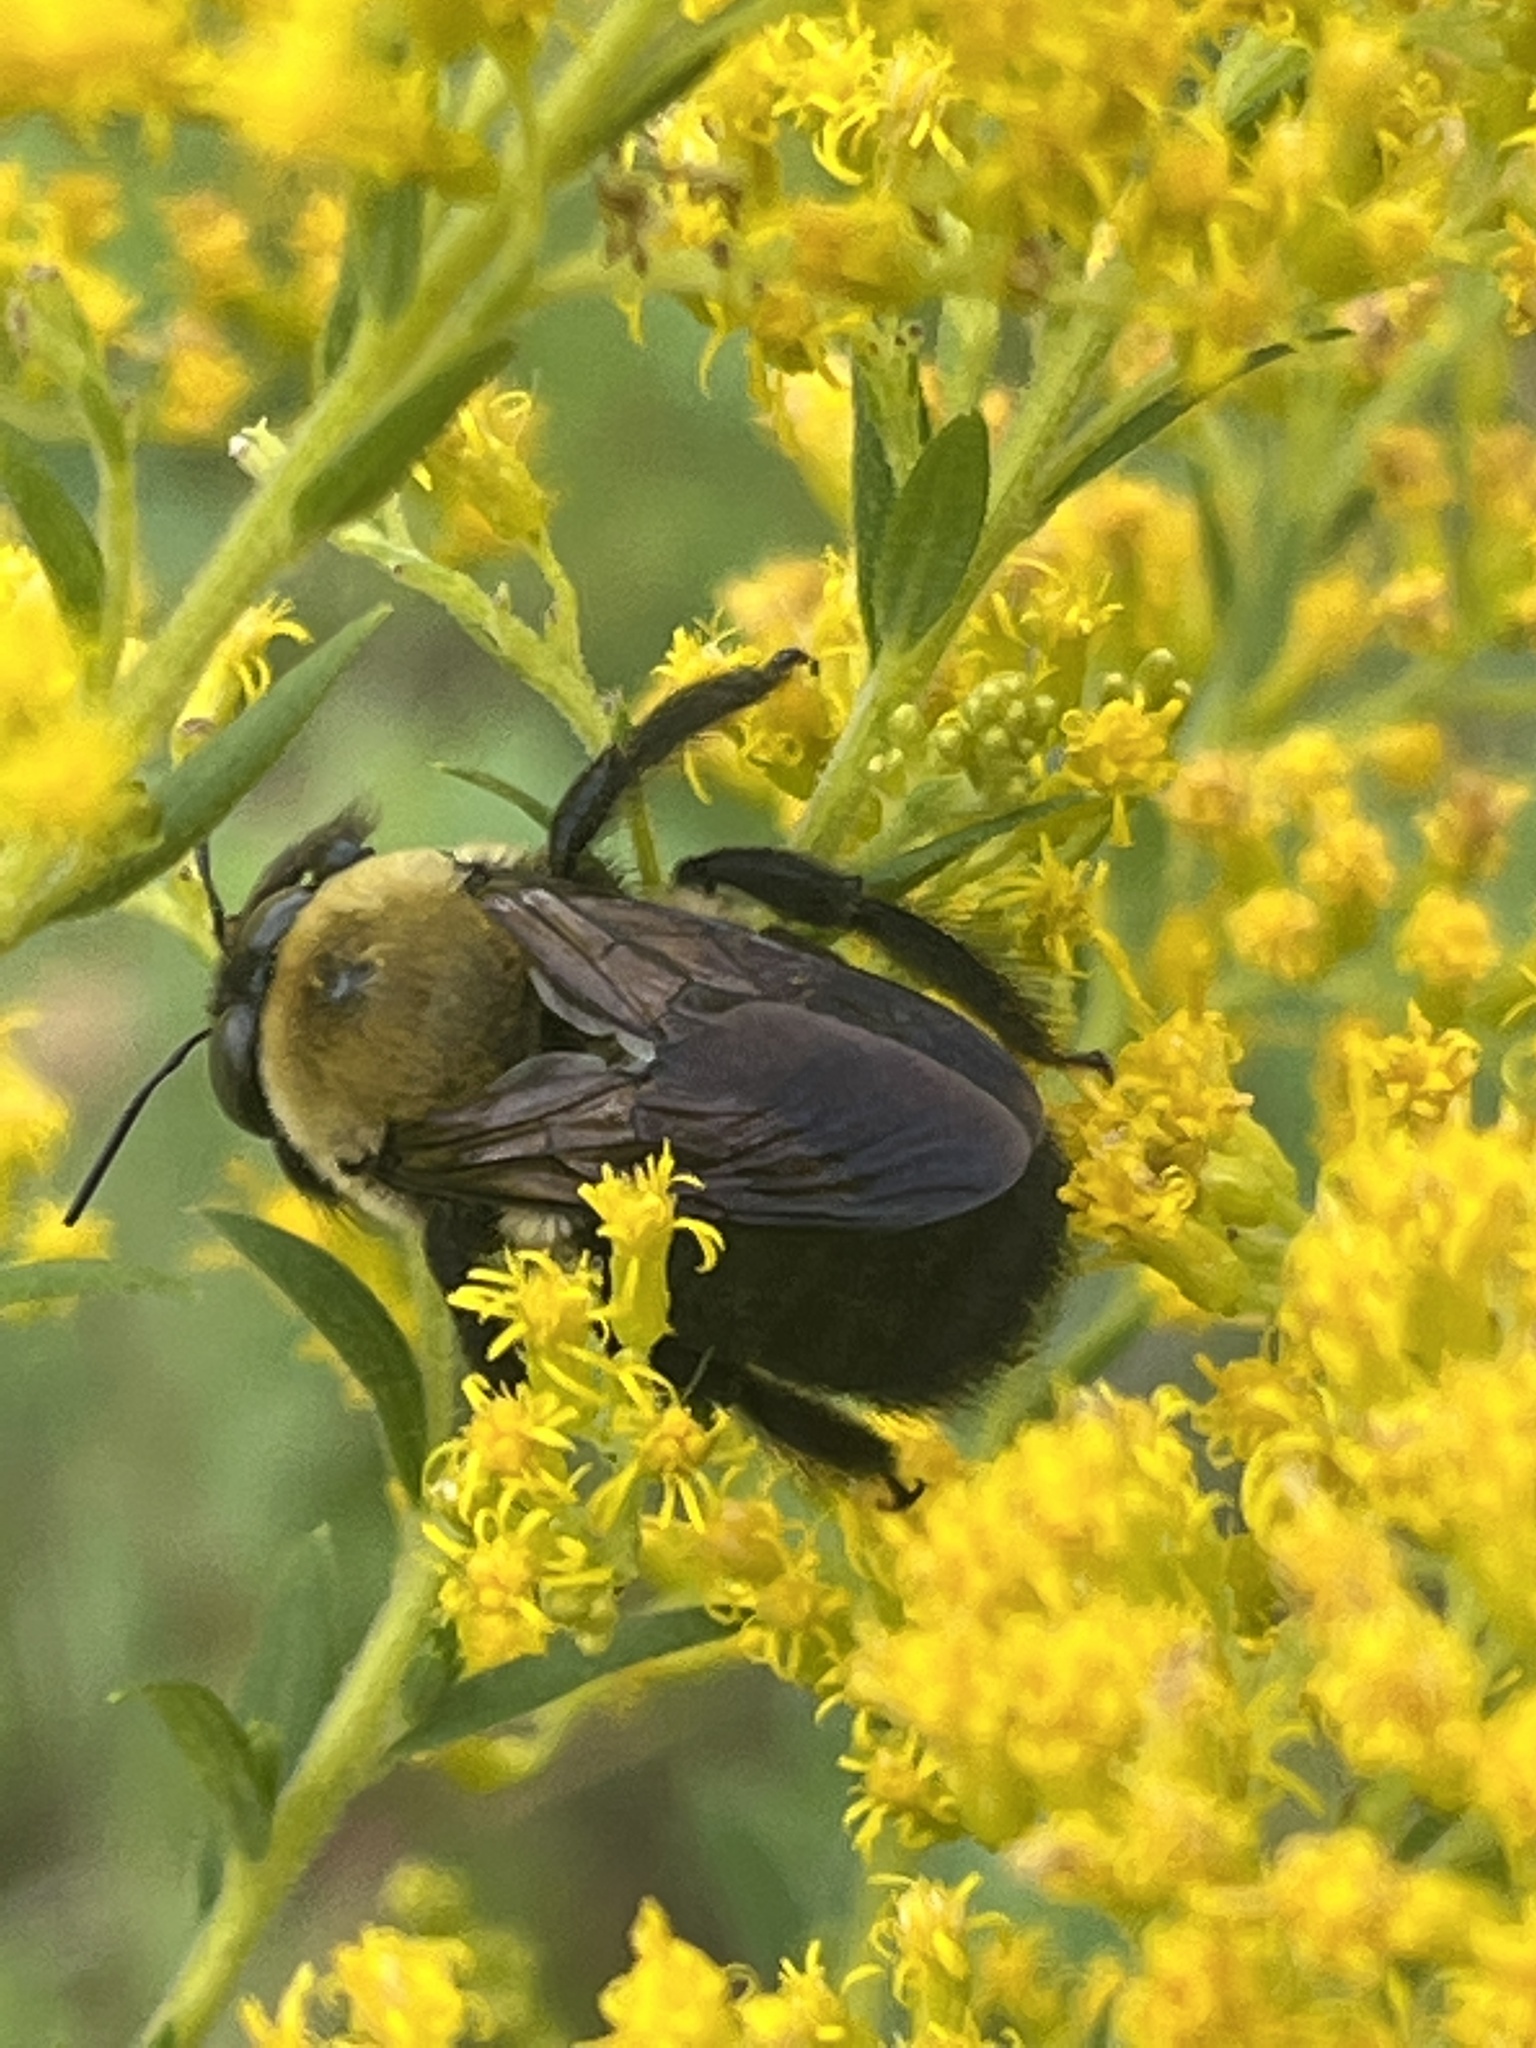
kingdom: Animalia
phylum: Arthropoda
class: Insecta
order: Hymenoptera
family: Apidae
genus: Xylocopa
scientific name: Xylocopa virginica
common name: Carpenter bee
